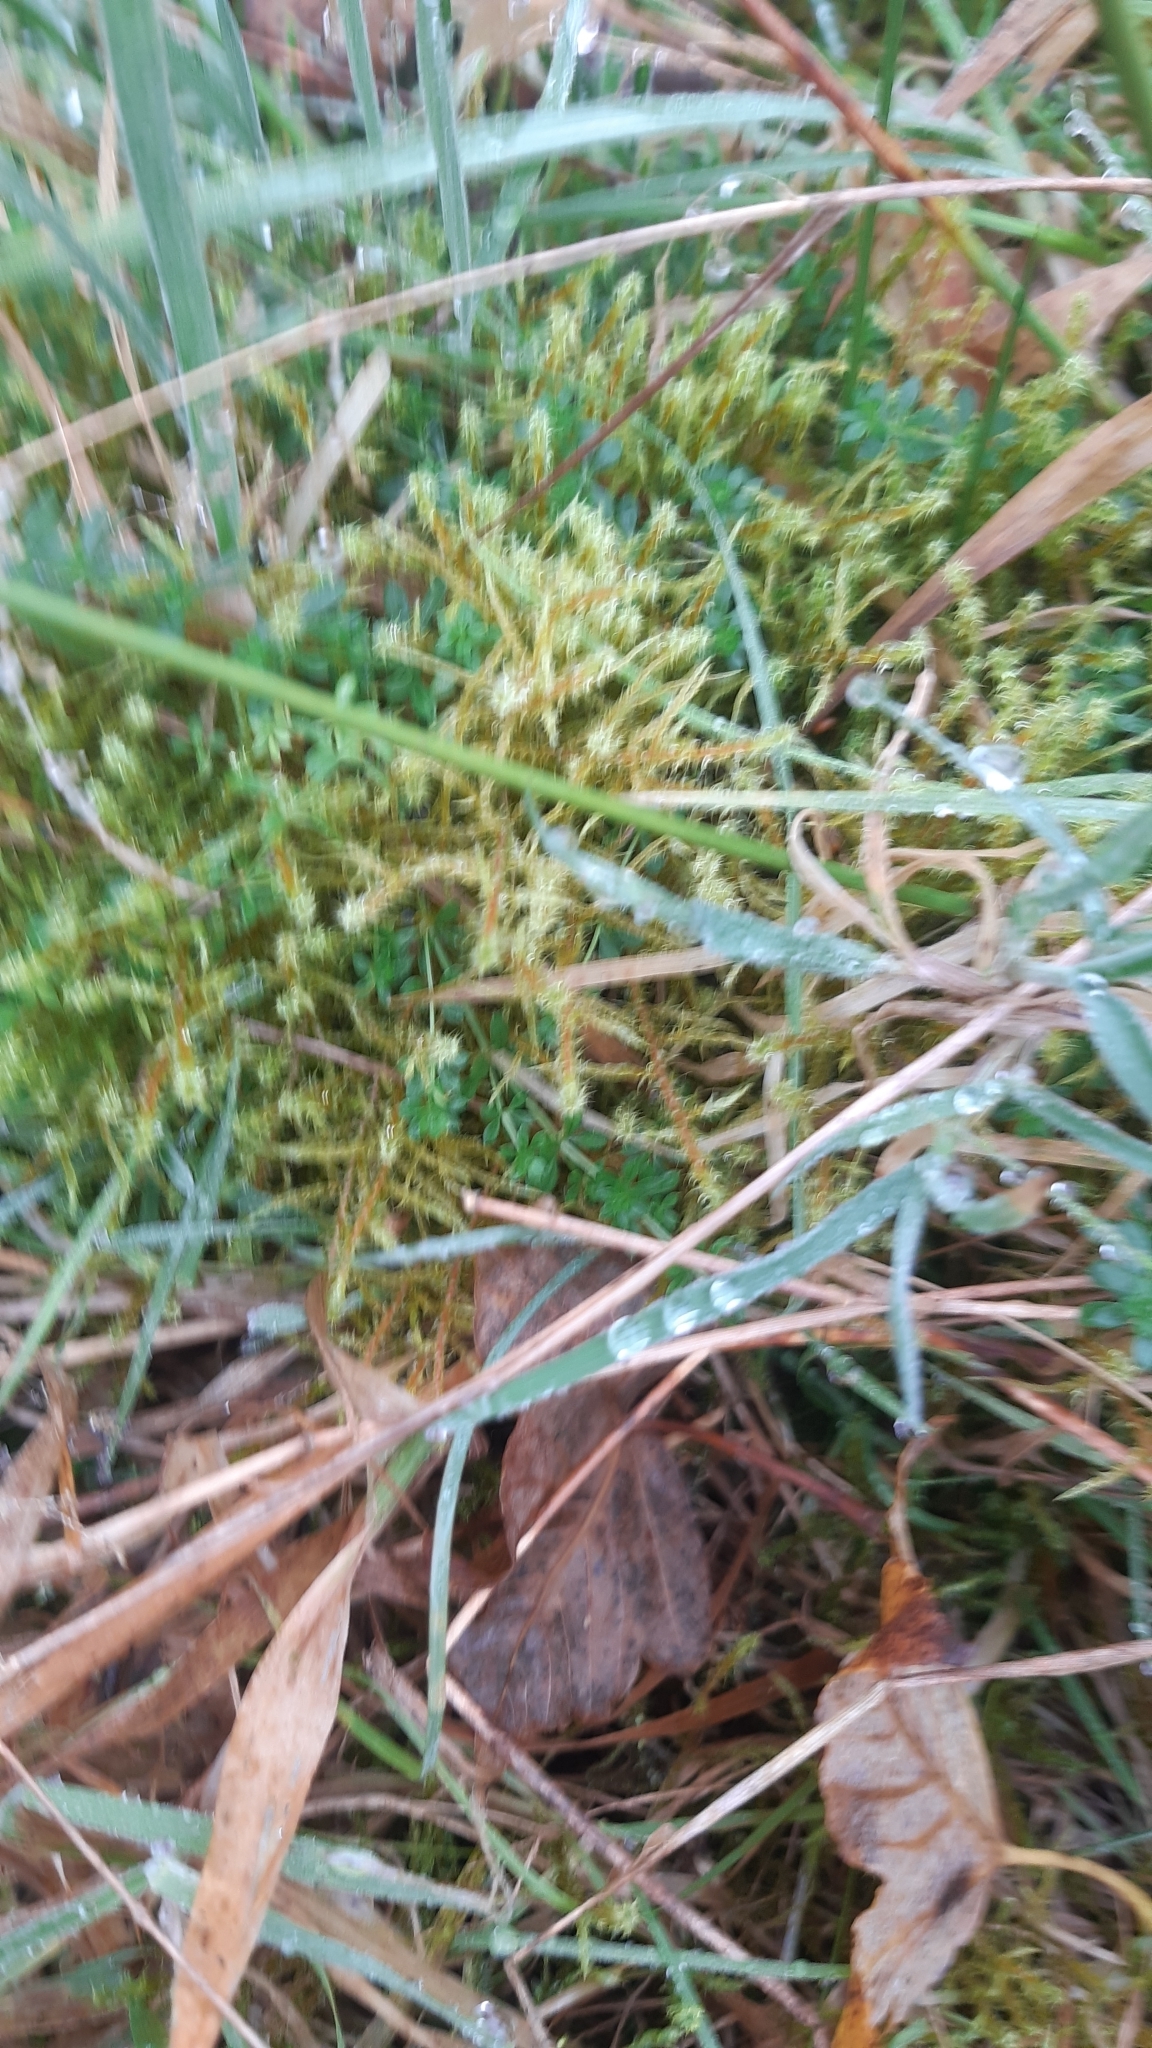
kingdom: Plantae
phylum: Bryophyta
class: Bryopsida
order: Hypnales
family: Hylocomiaceae
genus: Rhytidiadelphus
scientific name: Rhytidiadelphus squarrosus
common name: Springy turf-moss
